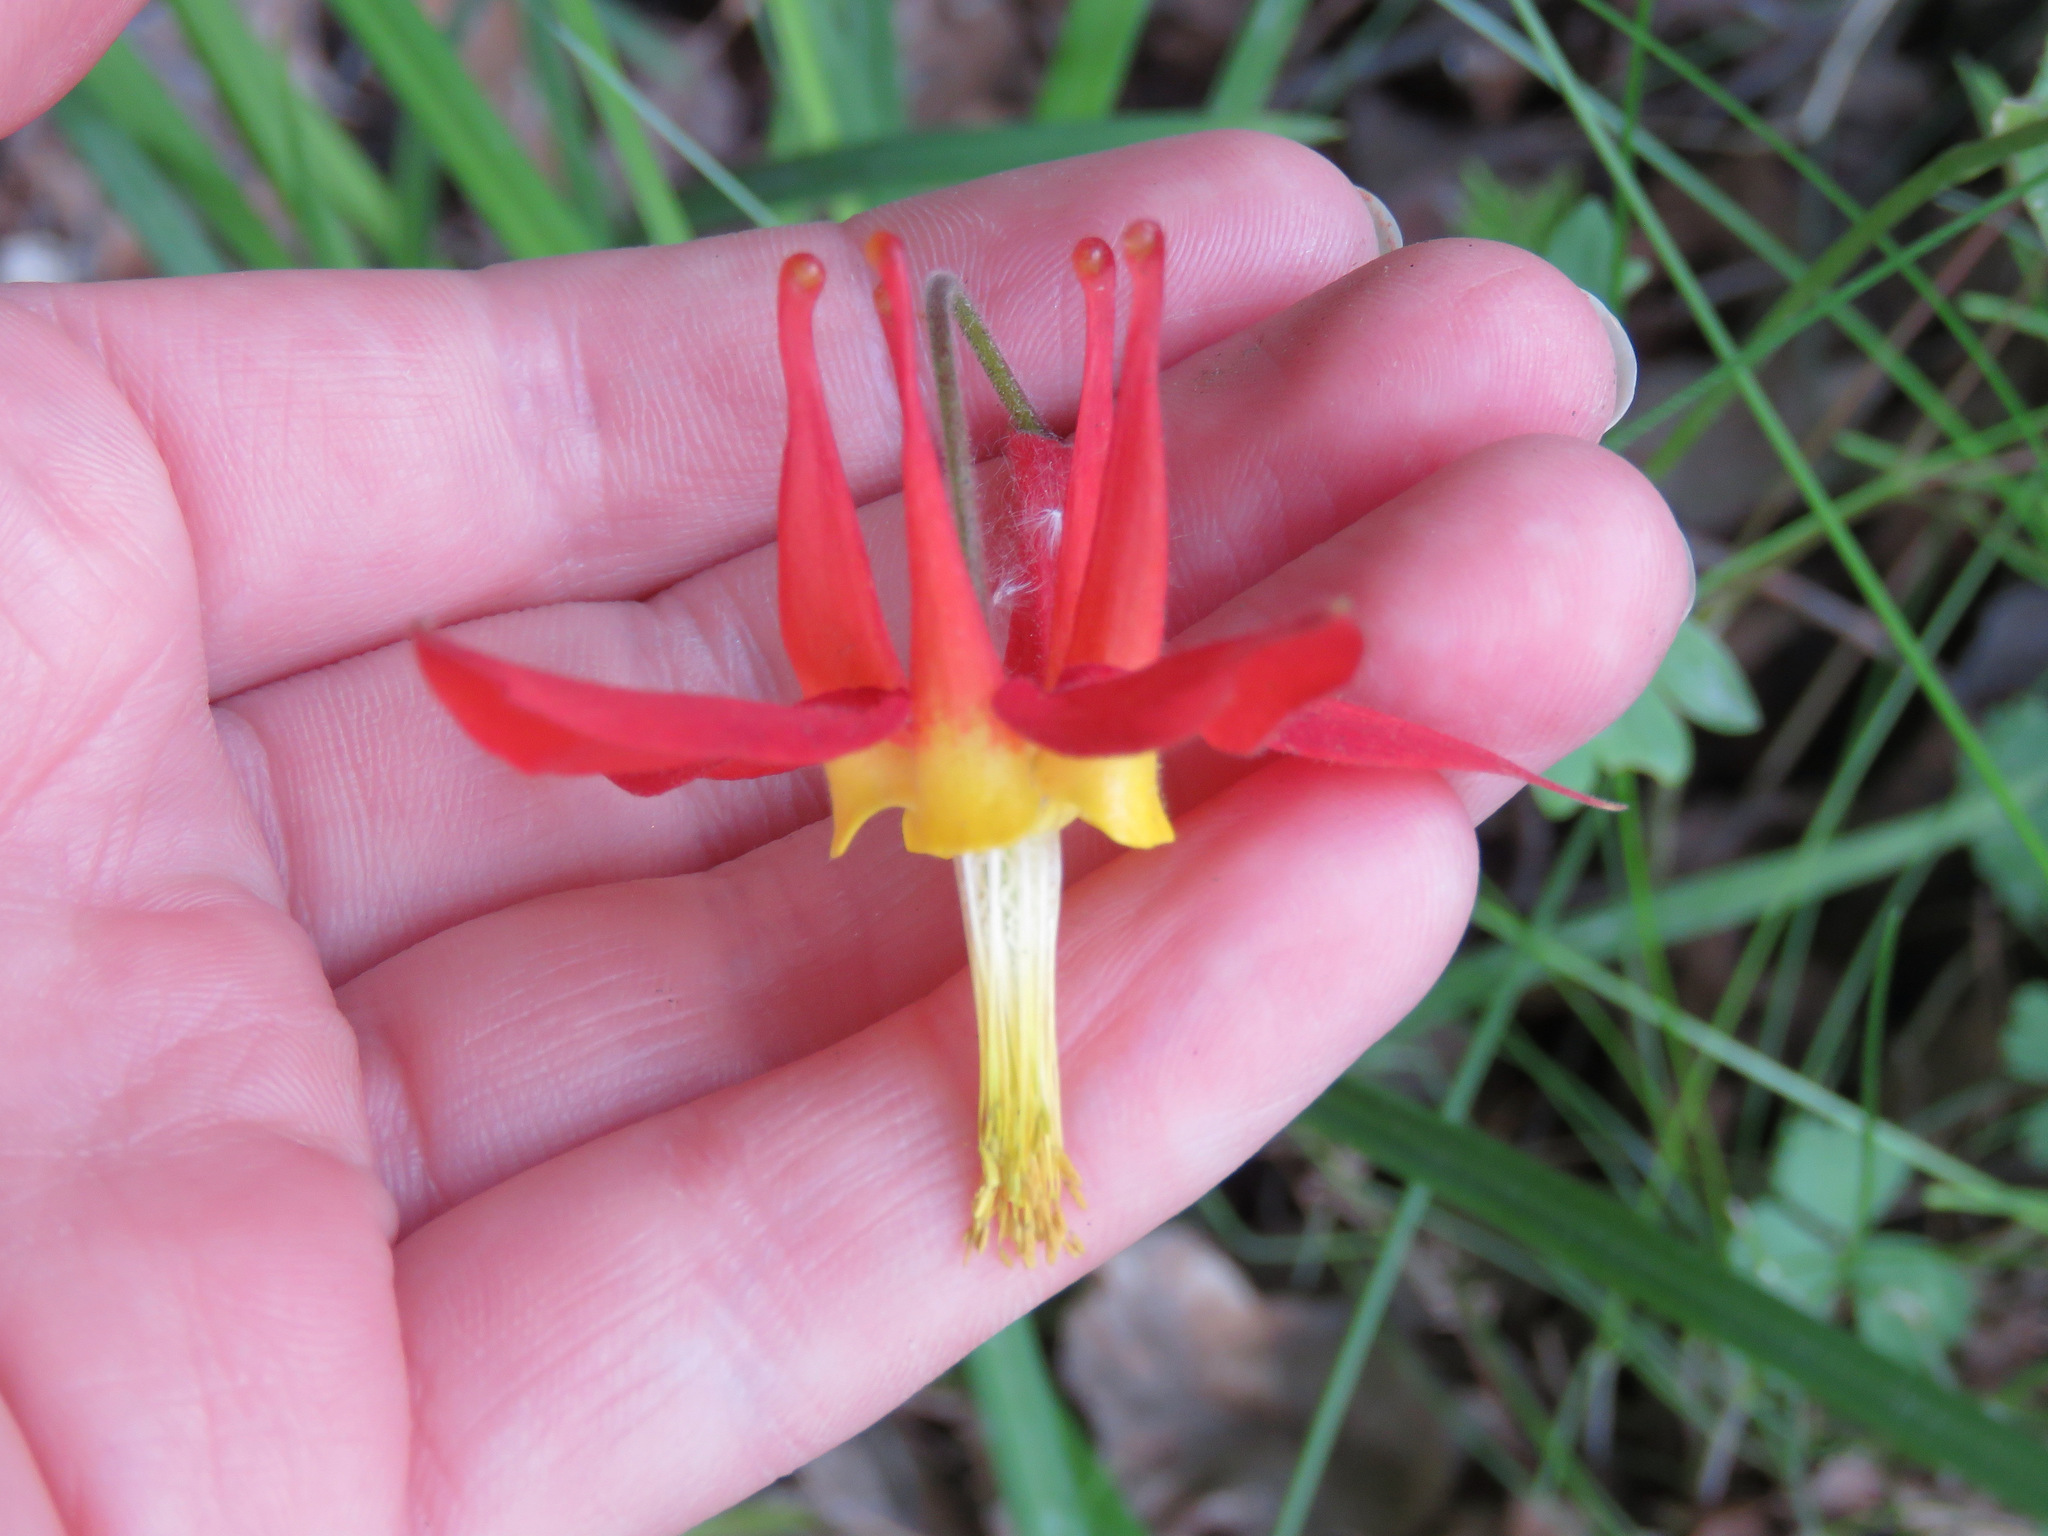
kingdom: Plantae
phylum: Tracheophyta
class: Magnoliopsida
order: Ranunculales
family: Ranunculaceae
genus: Aquilegia
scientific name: Aquilegia formosa
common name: Sitka columbine
